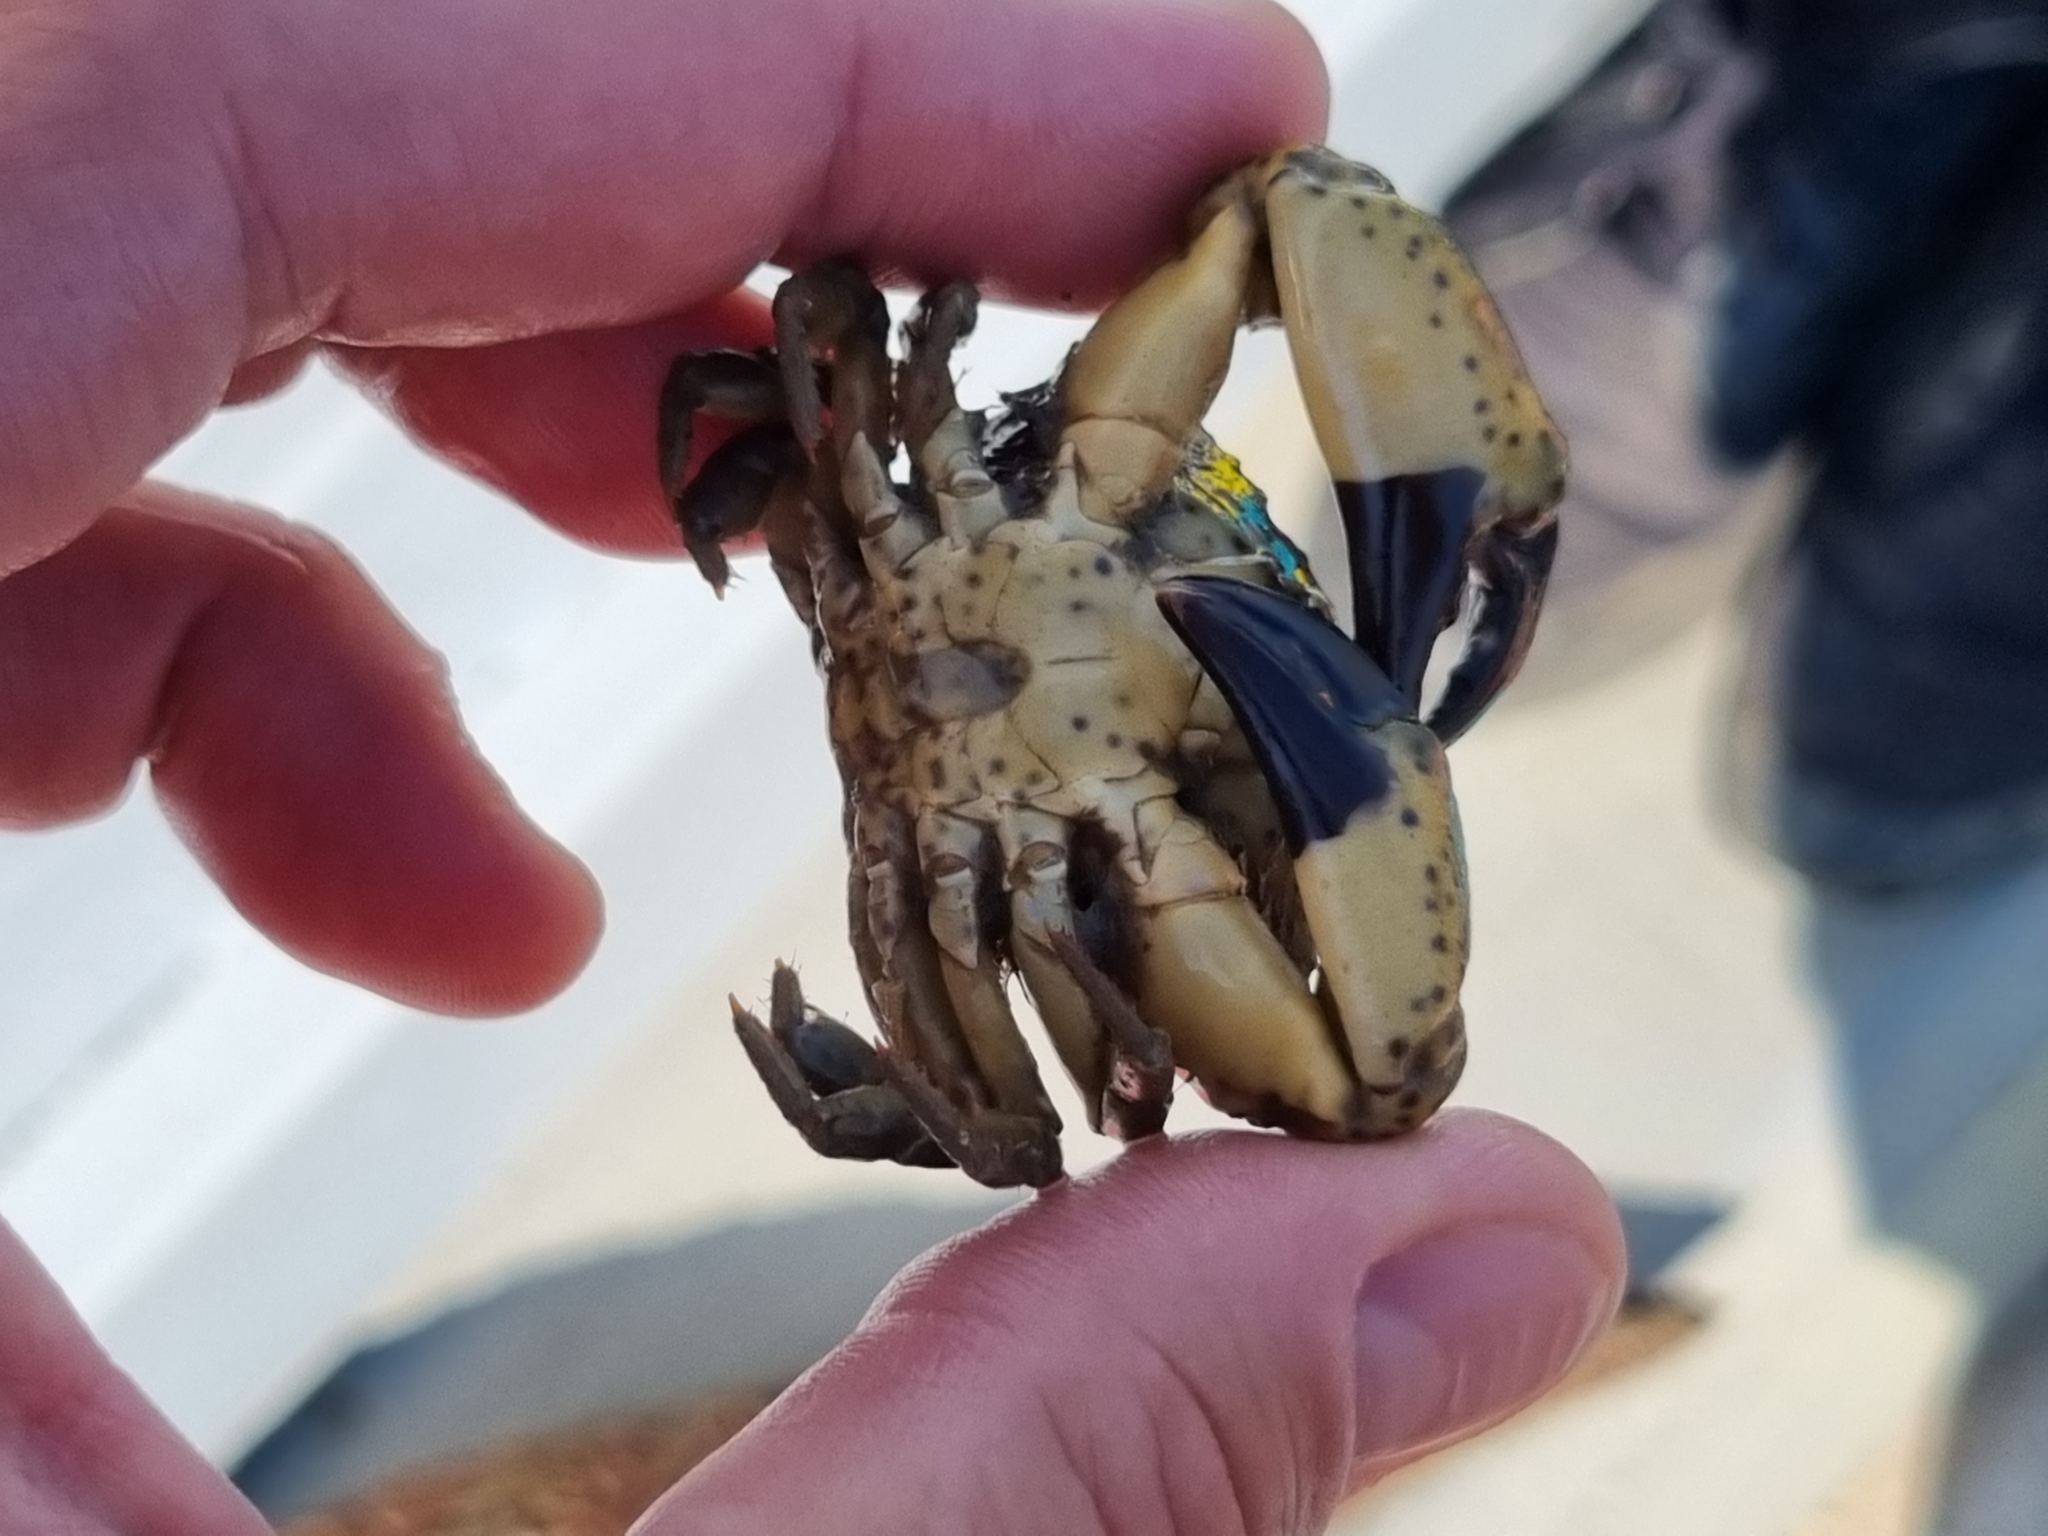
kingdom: Animalia
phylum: Arthropoda
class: Malacostraca
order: Decapoda
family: Xanthidae
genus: Xantho
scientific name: Xantho poressa
